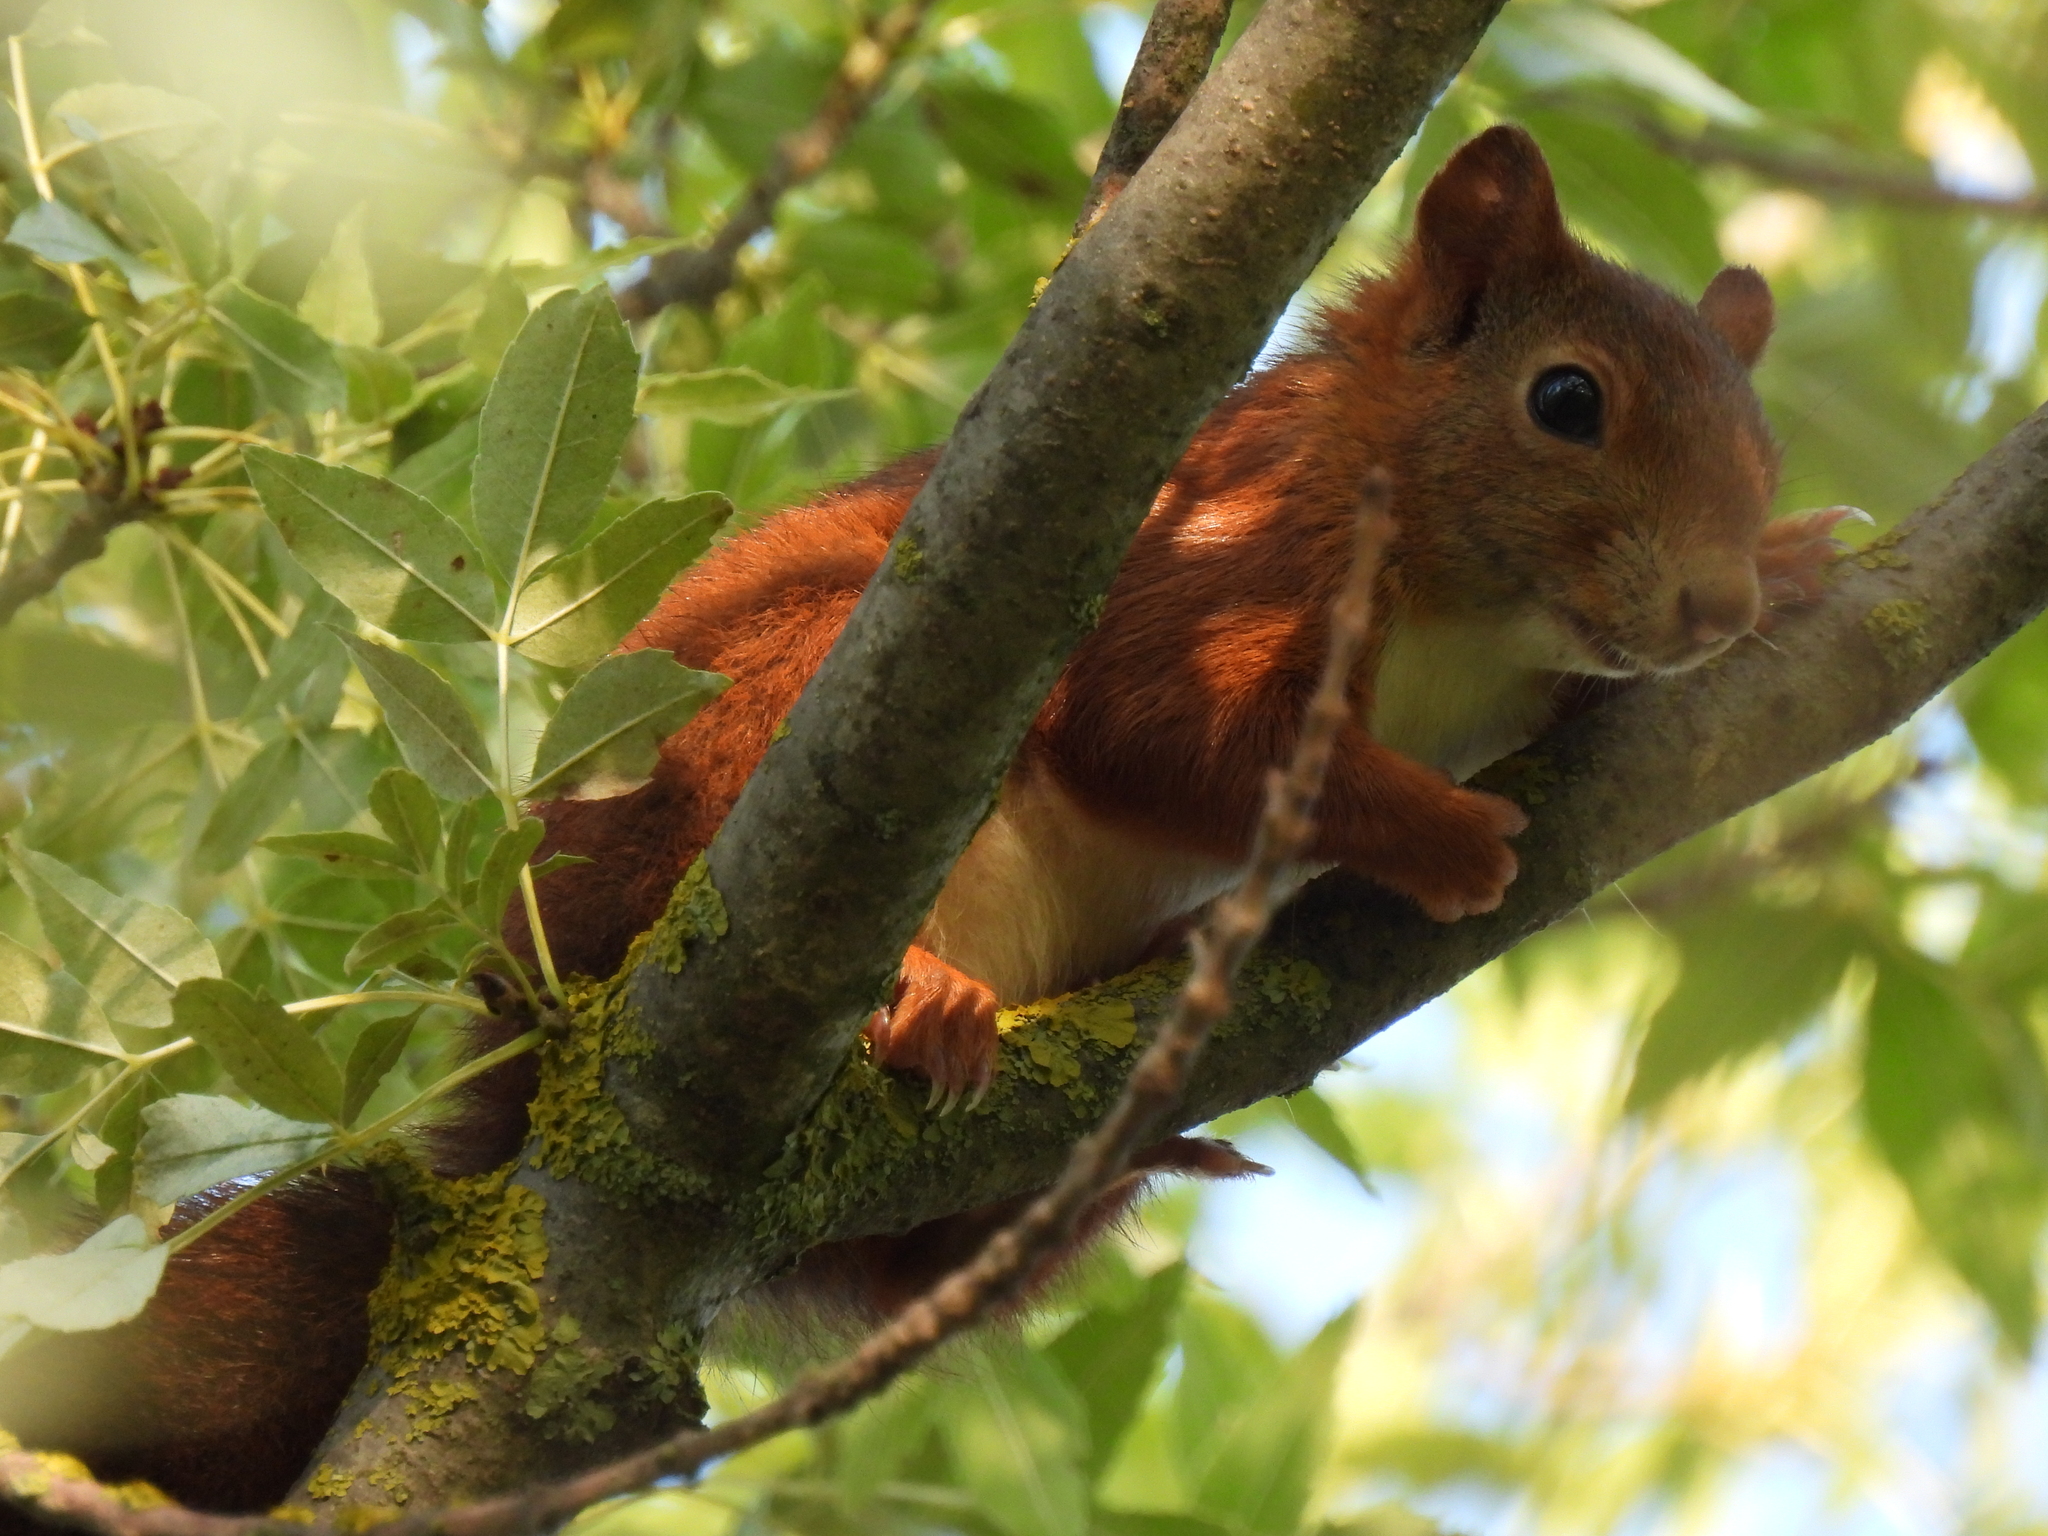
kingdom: Animalia
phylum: Chordata
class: Mammalia
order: Rodentia
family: Sciuridae
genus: Sciurus
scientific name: Sciurus vulgaris
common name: Eurasian red squirrel
